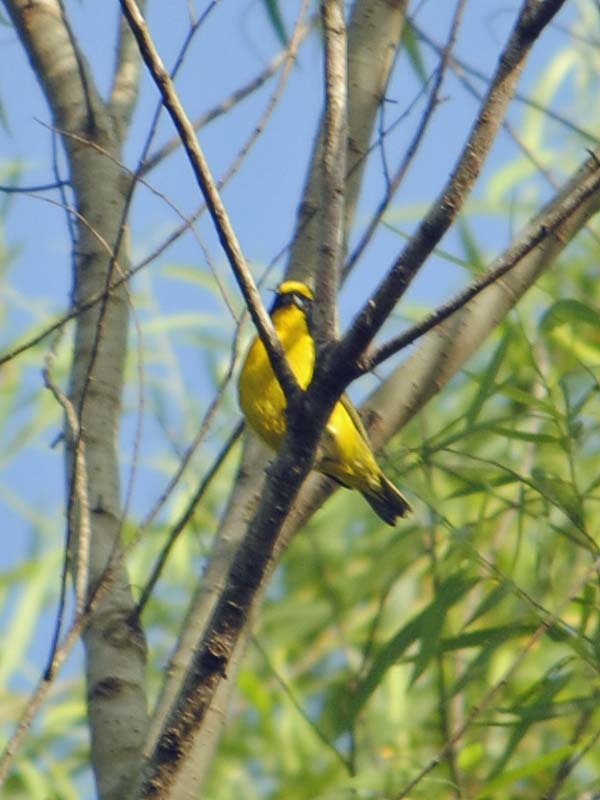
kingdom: Animalia
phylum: Chordata
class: Aves
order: Passeriformes
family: Fringillidae
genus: Euphonia
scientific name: Euphonia hirundinacea
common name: Yellow-throated euphonia
